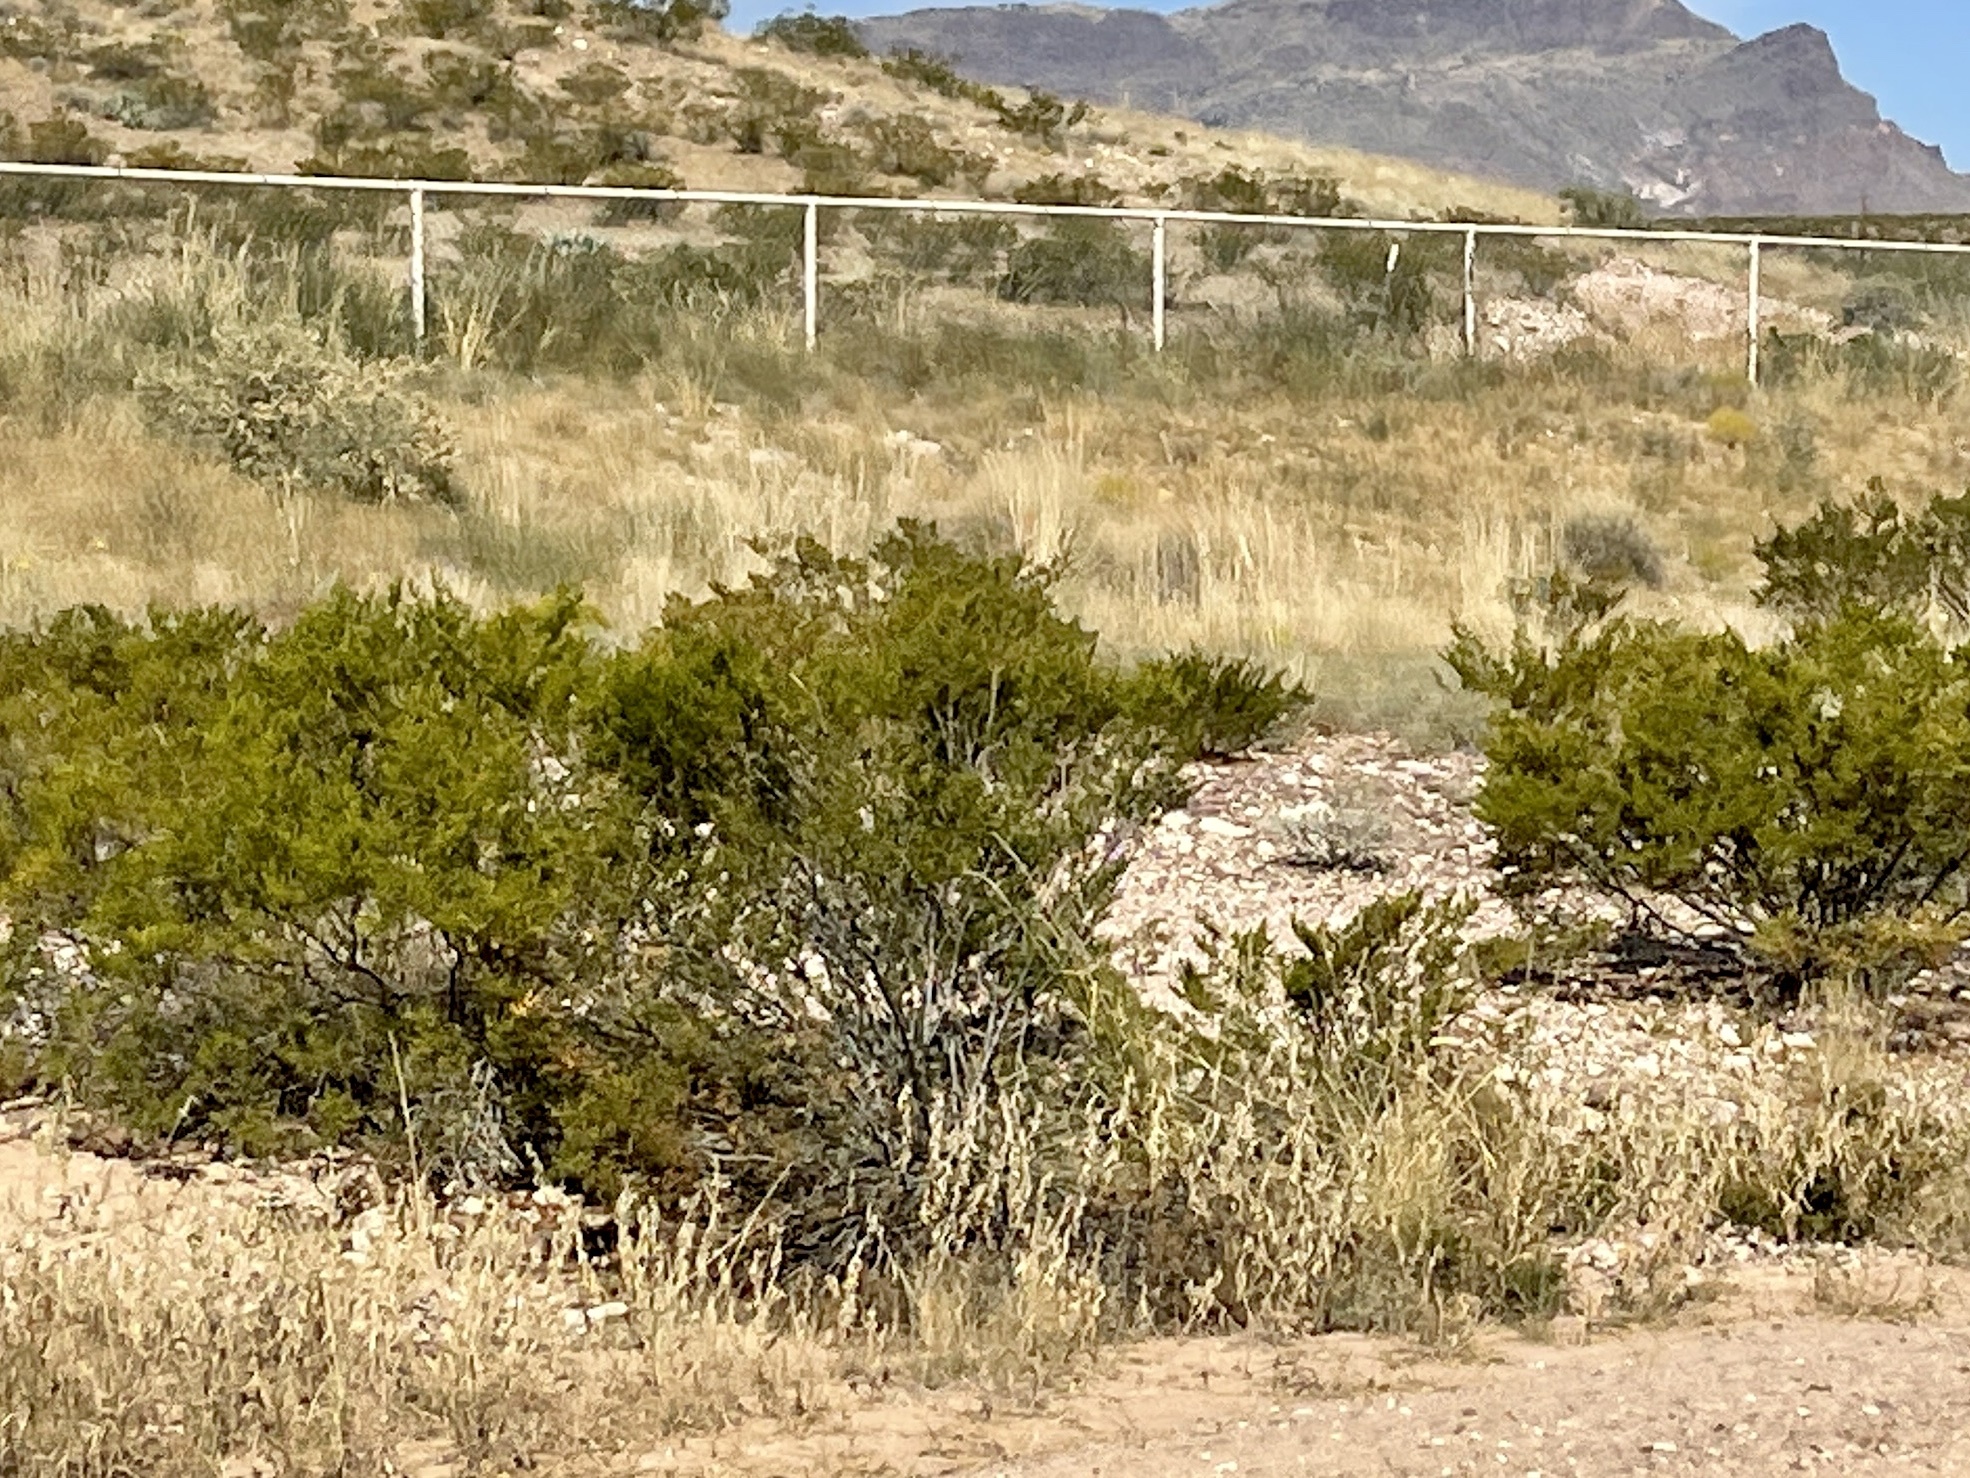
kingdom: Plantae
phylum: Tracheophyta
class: Magnoliopsida
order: Zygophyllales
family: Zygophyllaceae
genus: Larrea
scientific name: Larrea tridentata
